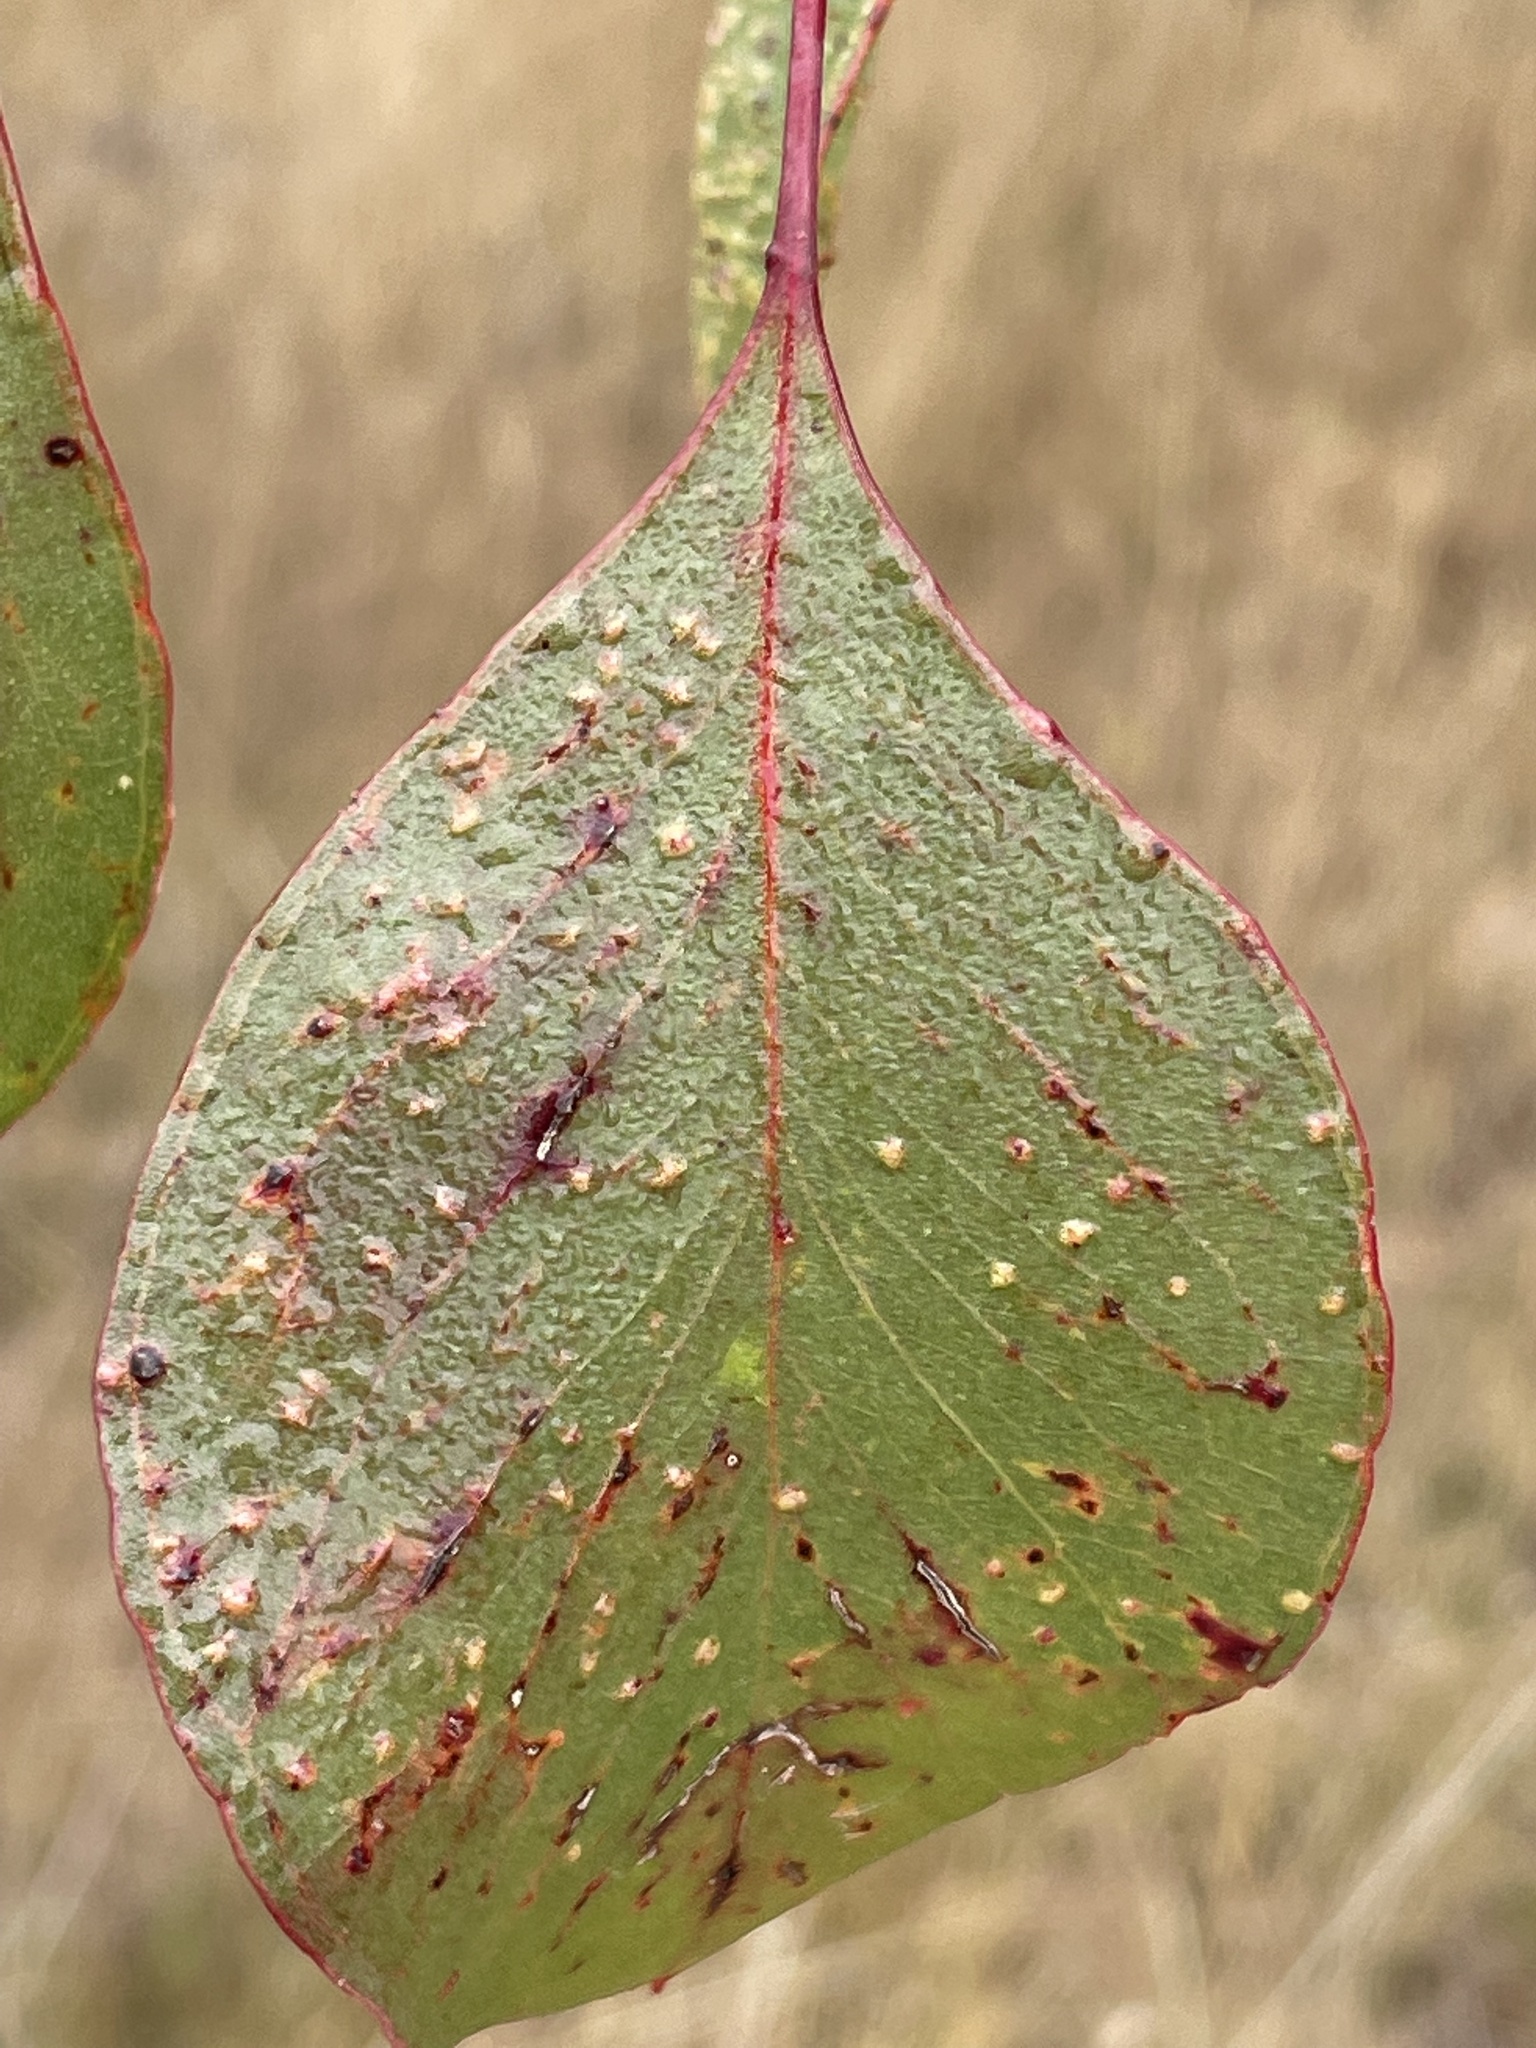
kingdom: Plantae
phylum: Tracheophyta
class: Magnoliopsida
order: Myrtales
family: Myrtaceae
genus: Eucalyptus
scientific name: Eucalyptus populnea
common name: Bimble box
